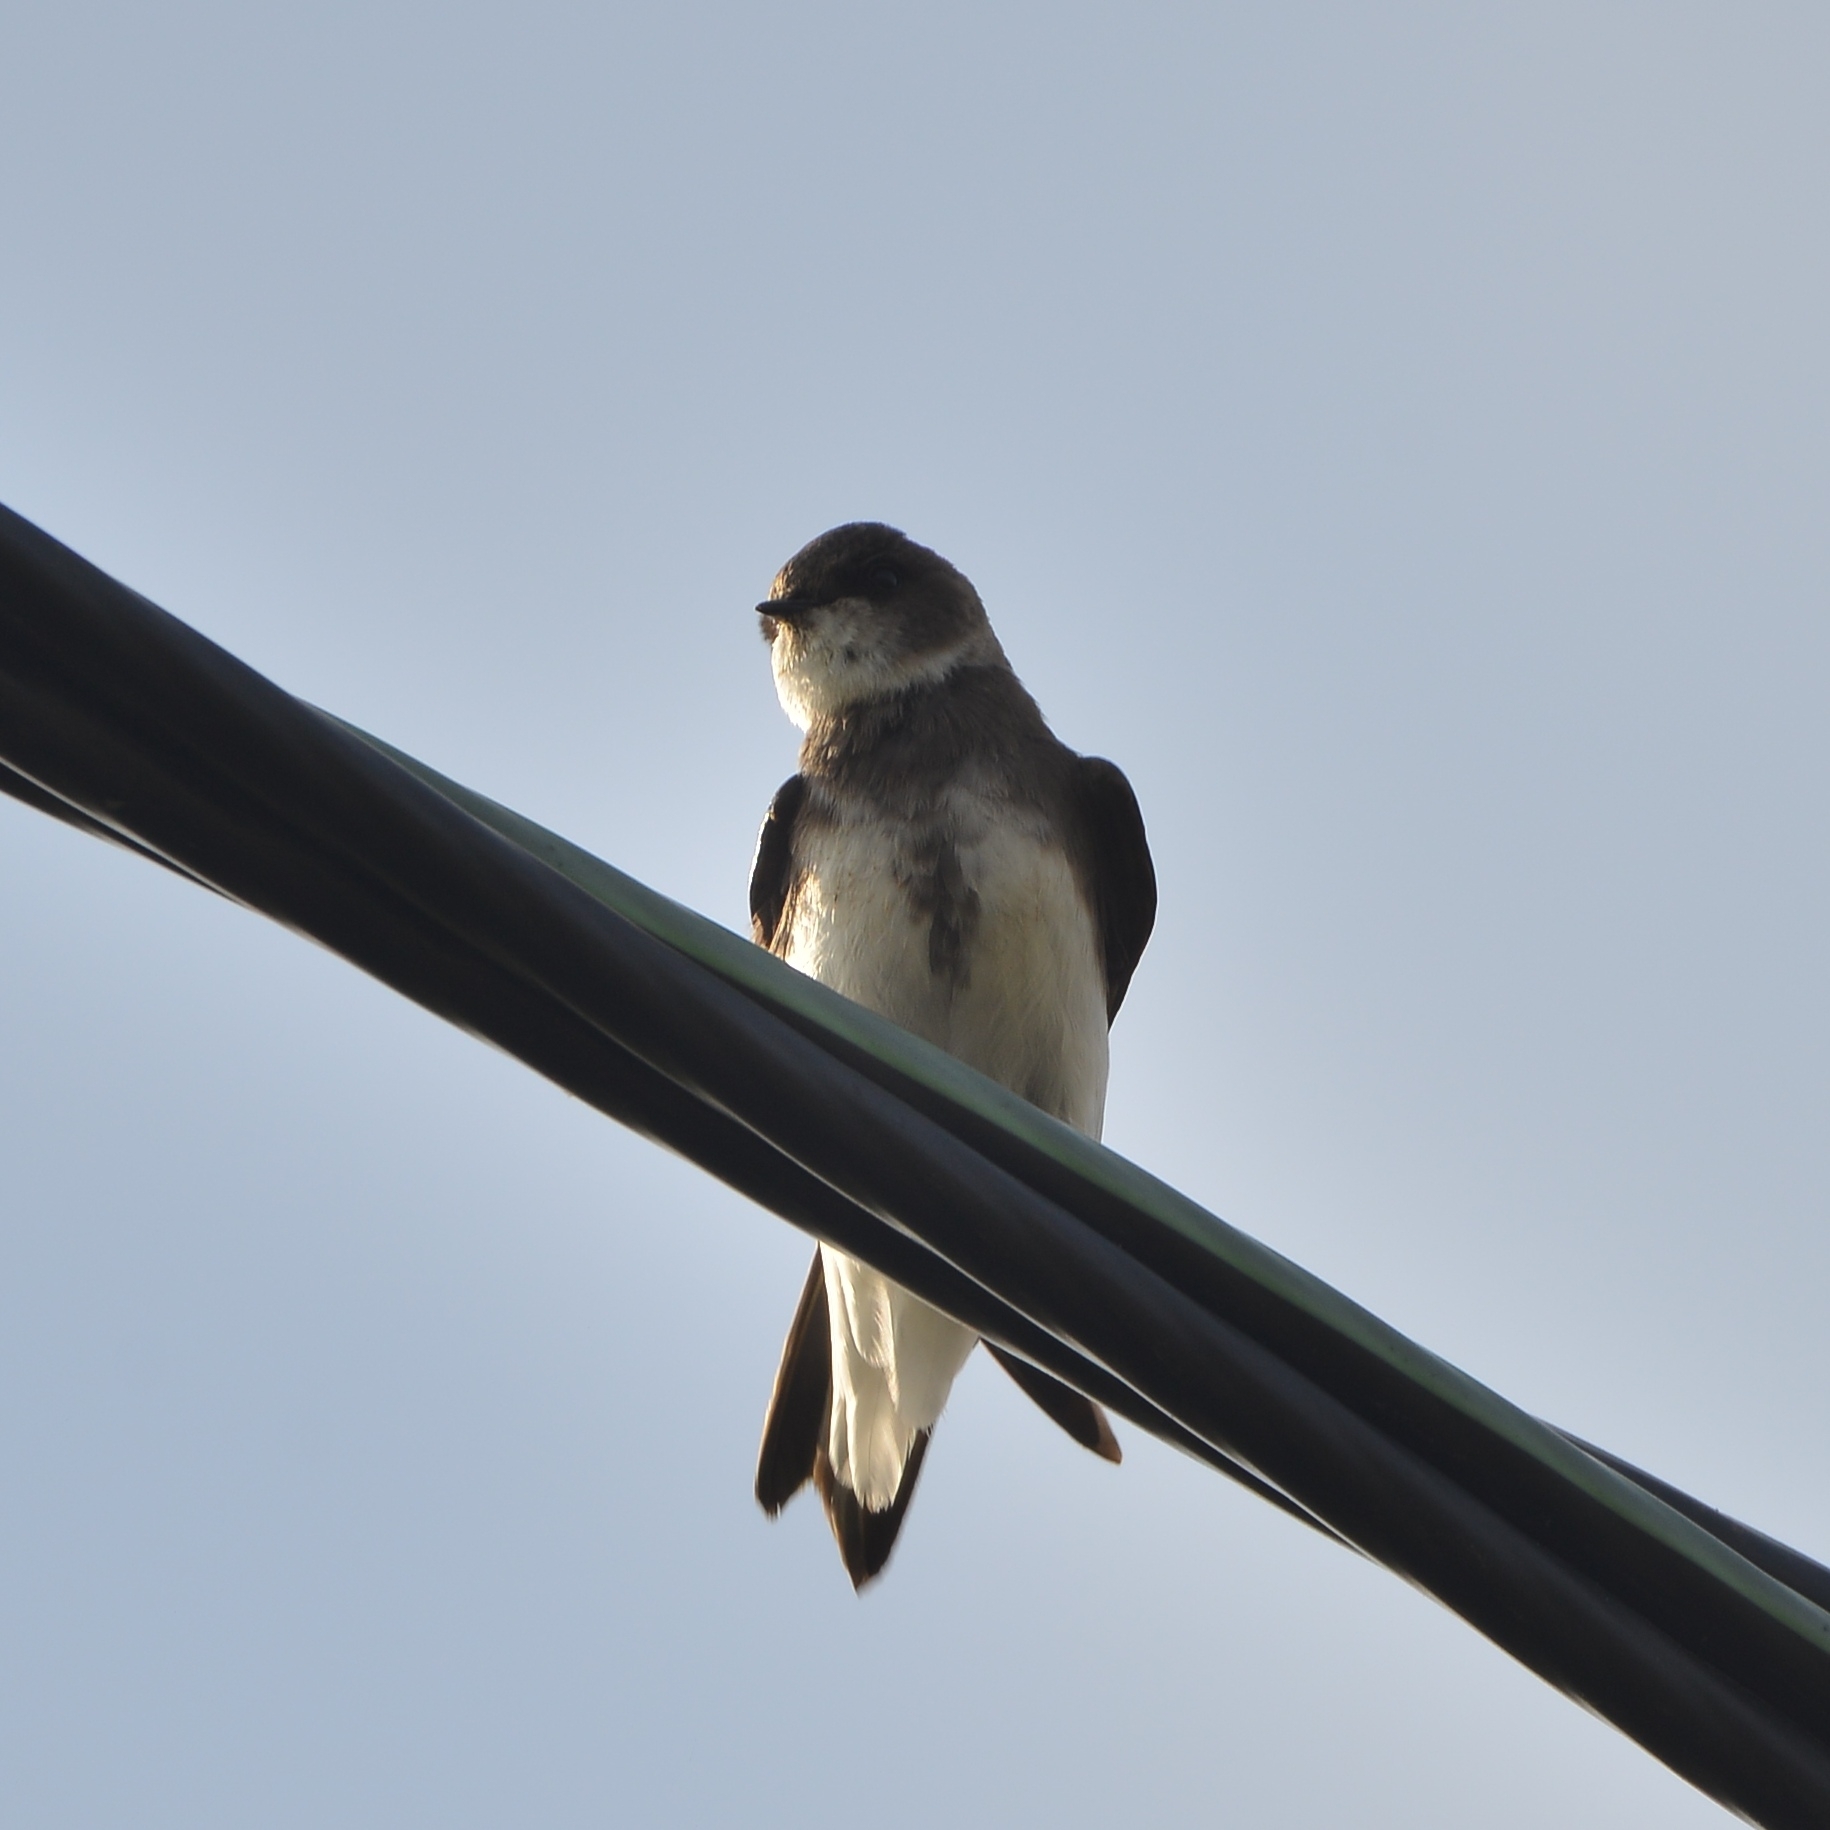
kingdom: Animalia
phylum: Chordata
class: Aves
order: Passeriformes
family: Hirundinidae
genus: Riparia
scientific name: Riparia riparia
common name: Sand martin
